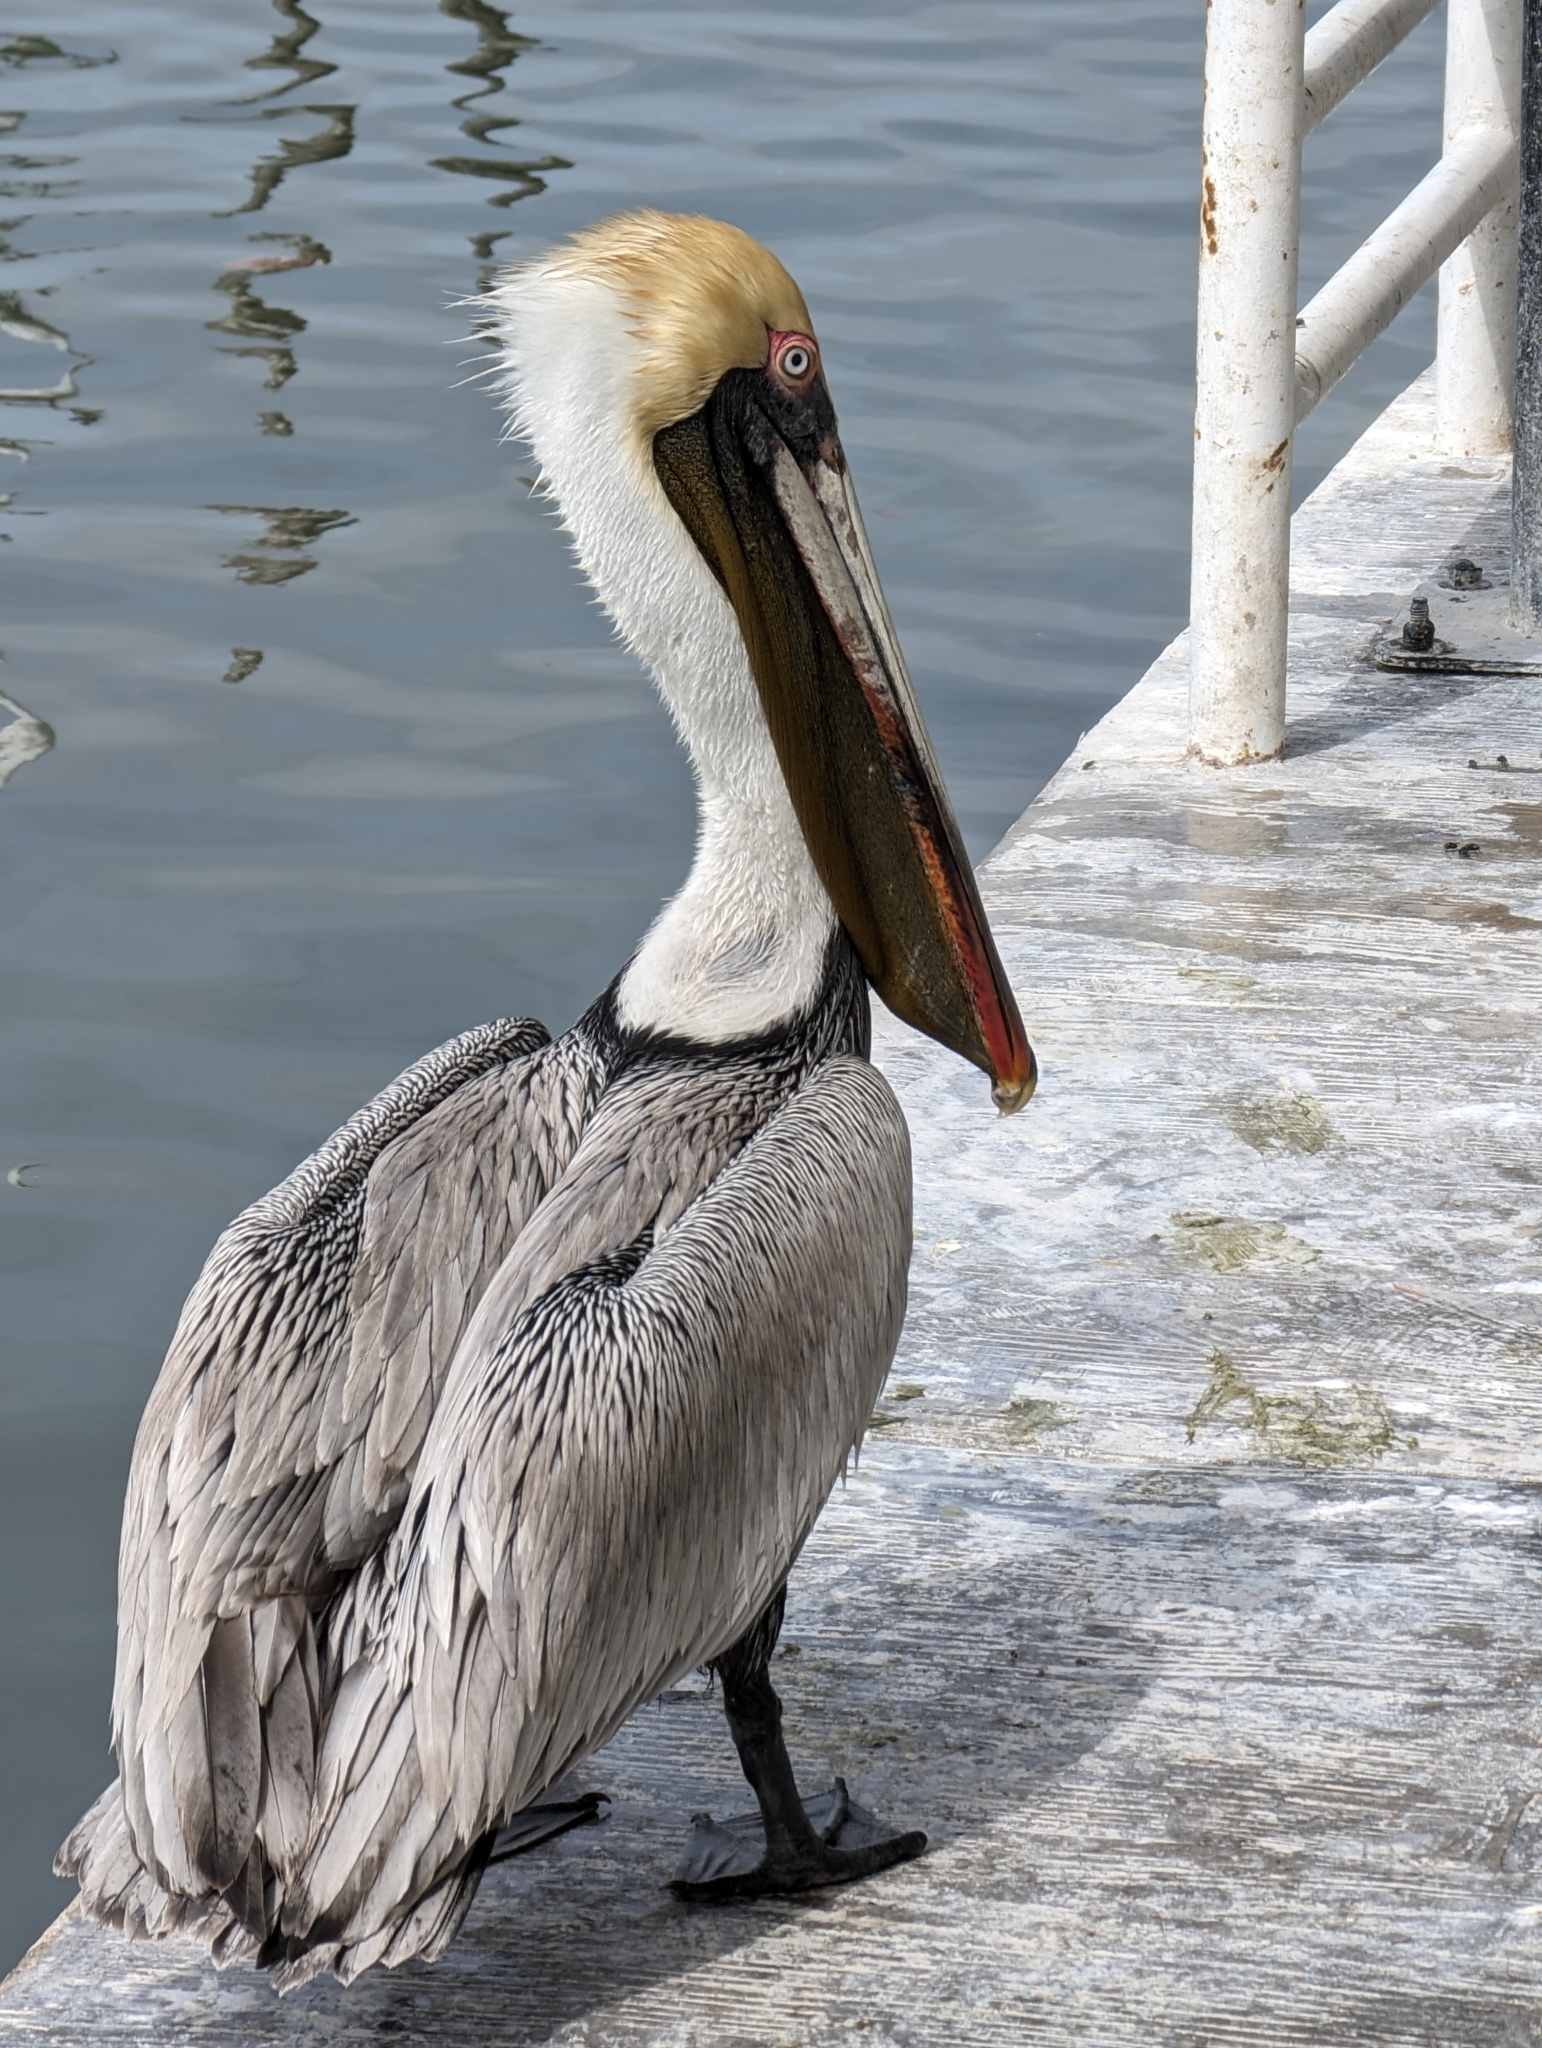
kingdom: Animalia
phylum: Chordata
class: Aves
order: Pelecaniformes
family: Pelecanidae
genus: Pelecanus
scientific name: Pelecanus occidentalis
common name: Brown pelican
